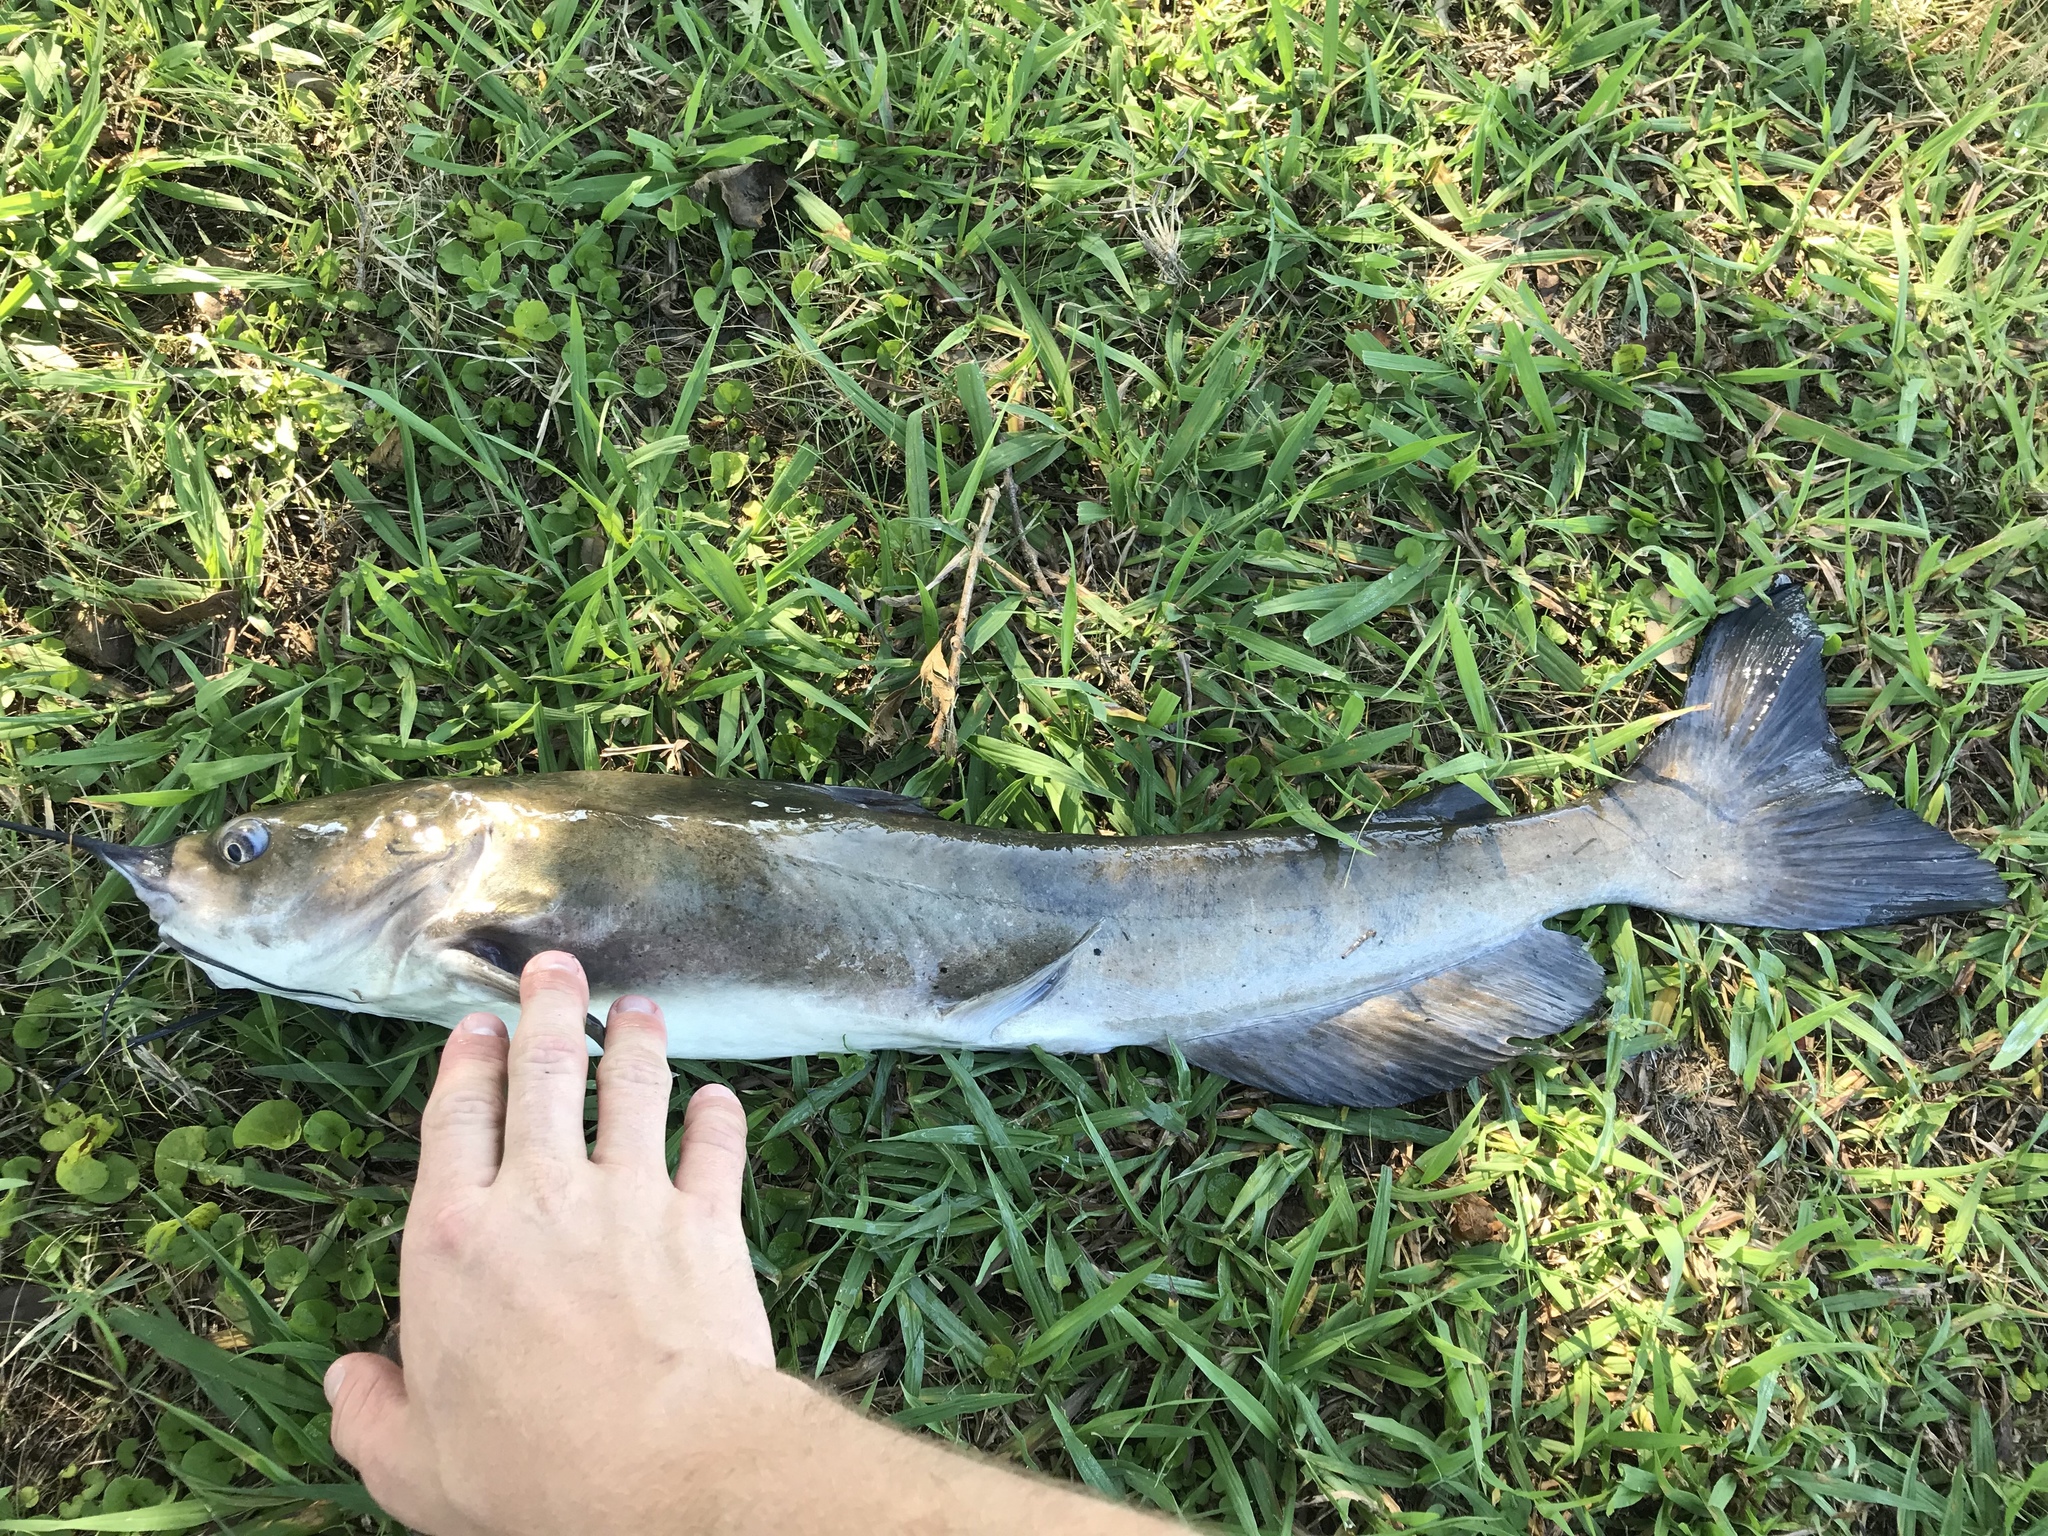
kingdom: Animalia
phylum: Chordata
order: Siluriformes
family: Ictaluridae
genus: Ictalurus
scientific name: Ictalurus punctatus
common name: Channel catfish
